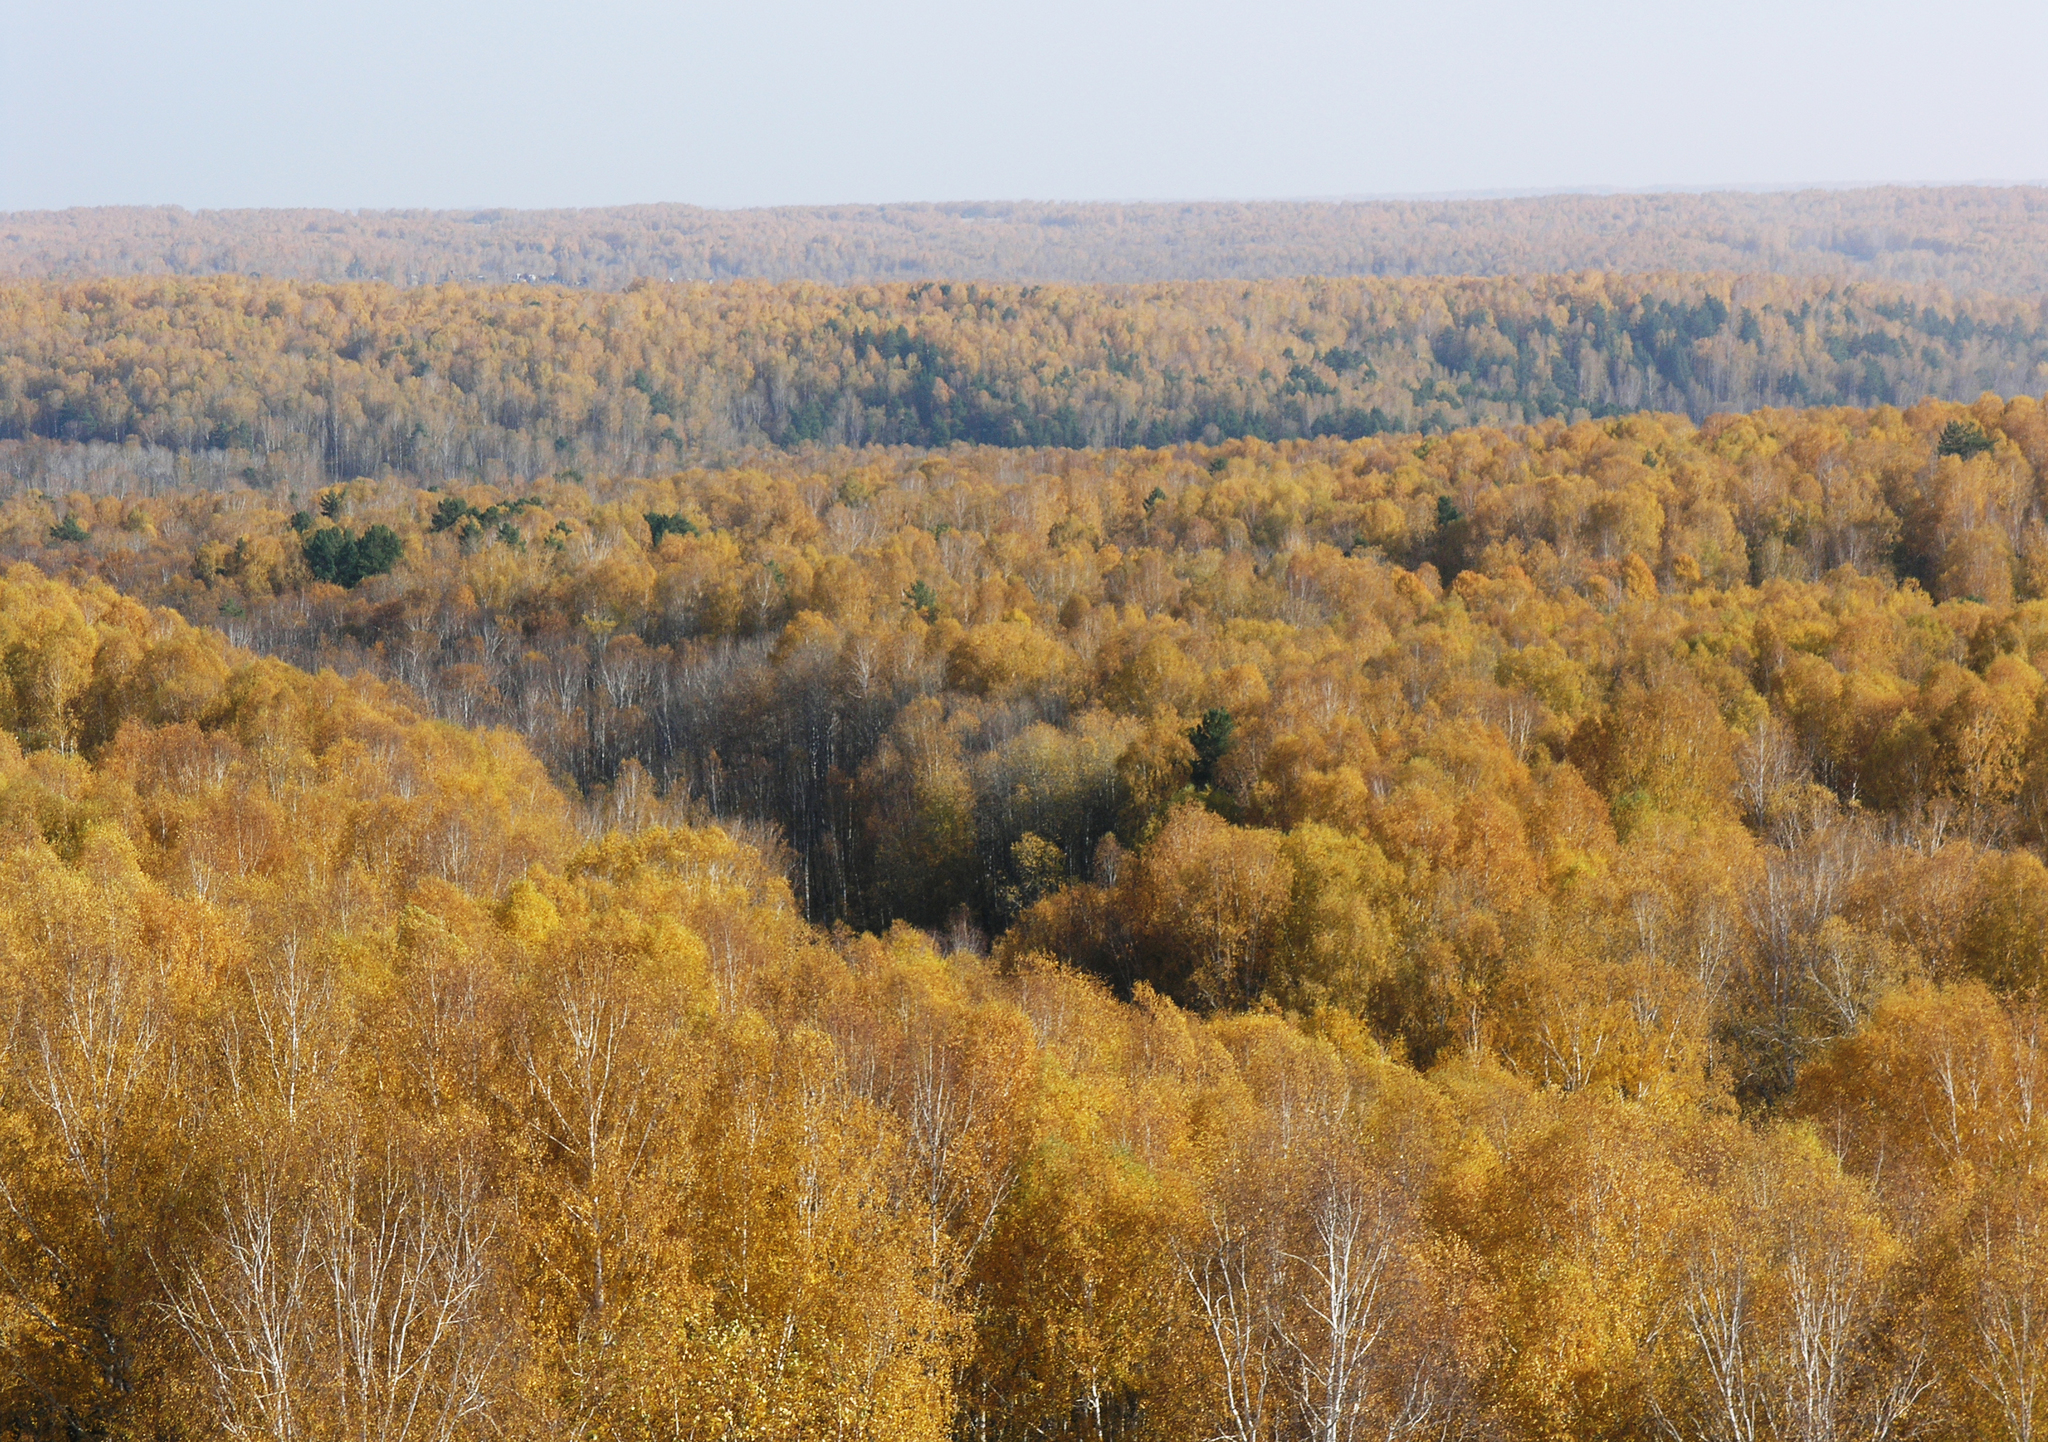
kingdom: Plantae
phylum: Tracheophyta
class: Magnoliopsida
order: Fagales
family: Betulaceae
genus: Betula
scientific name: Betula pendula
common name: Silver birch
